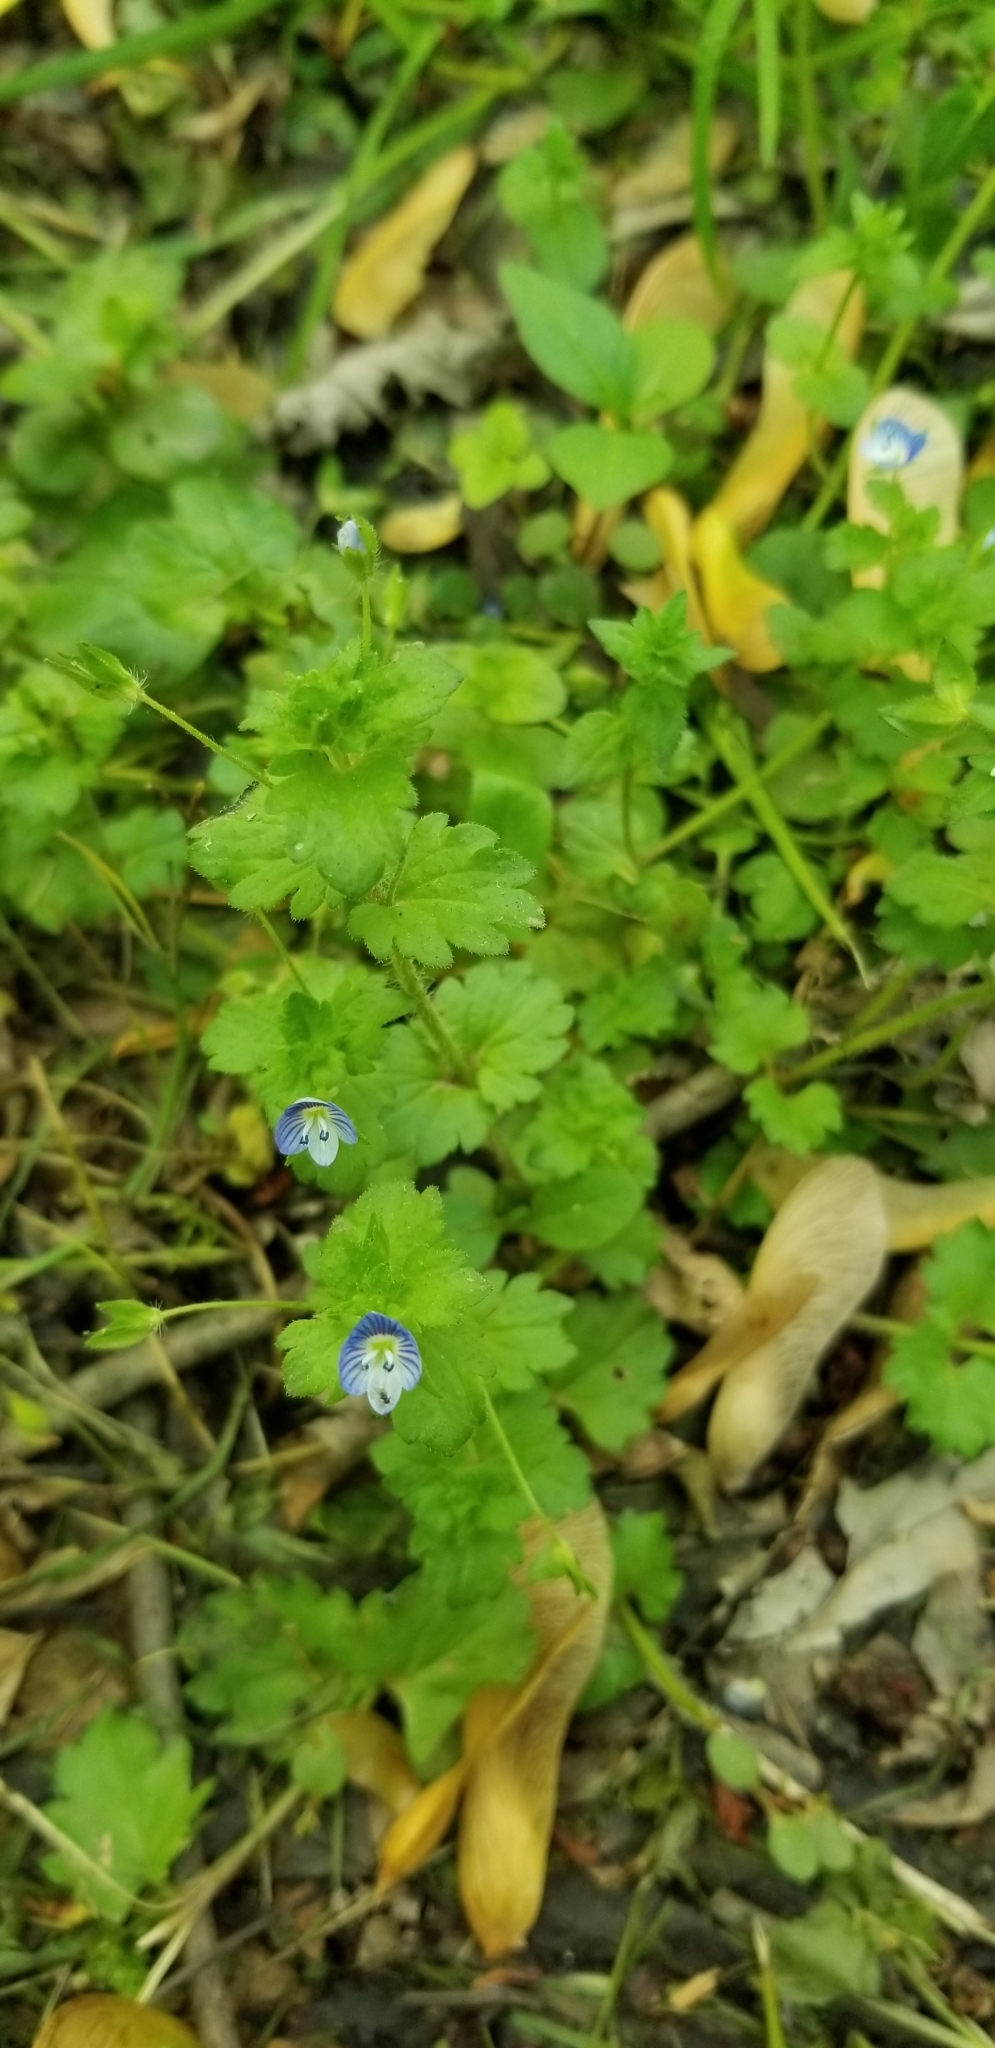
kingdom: Plantae
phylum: Tracheophyta
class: Magnoliopsida
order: Lamiales
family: Plantaginaceae
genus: Veronica
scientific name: Veronica persica
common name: Common field-speedwell
